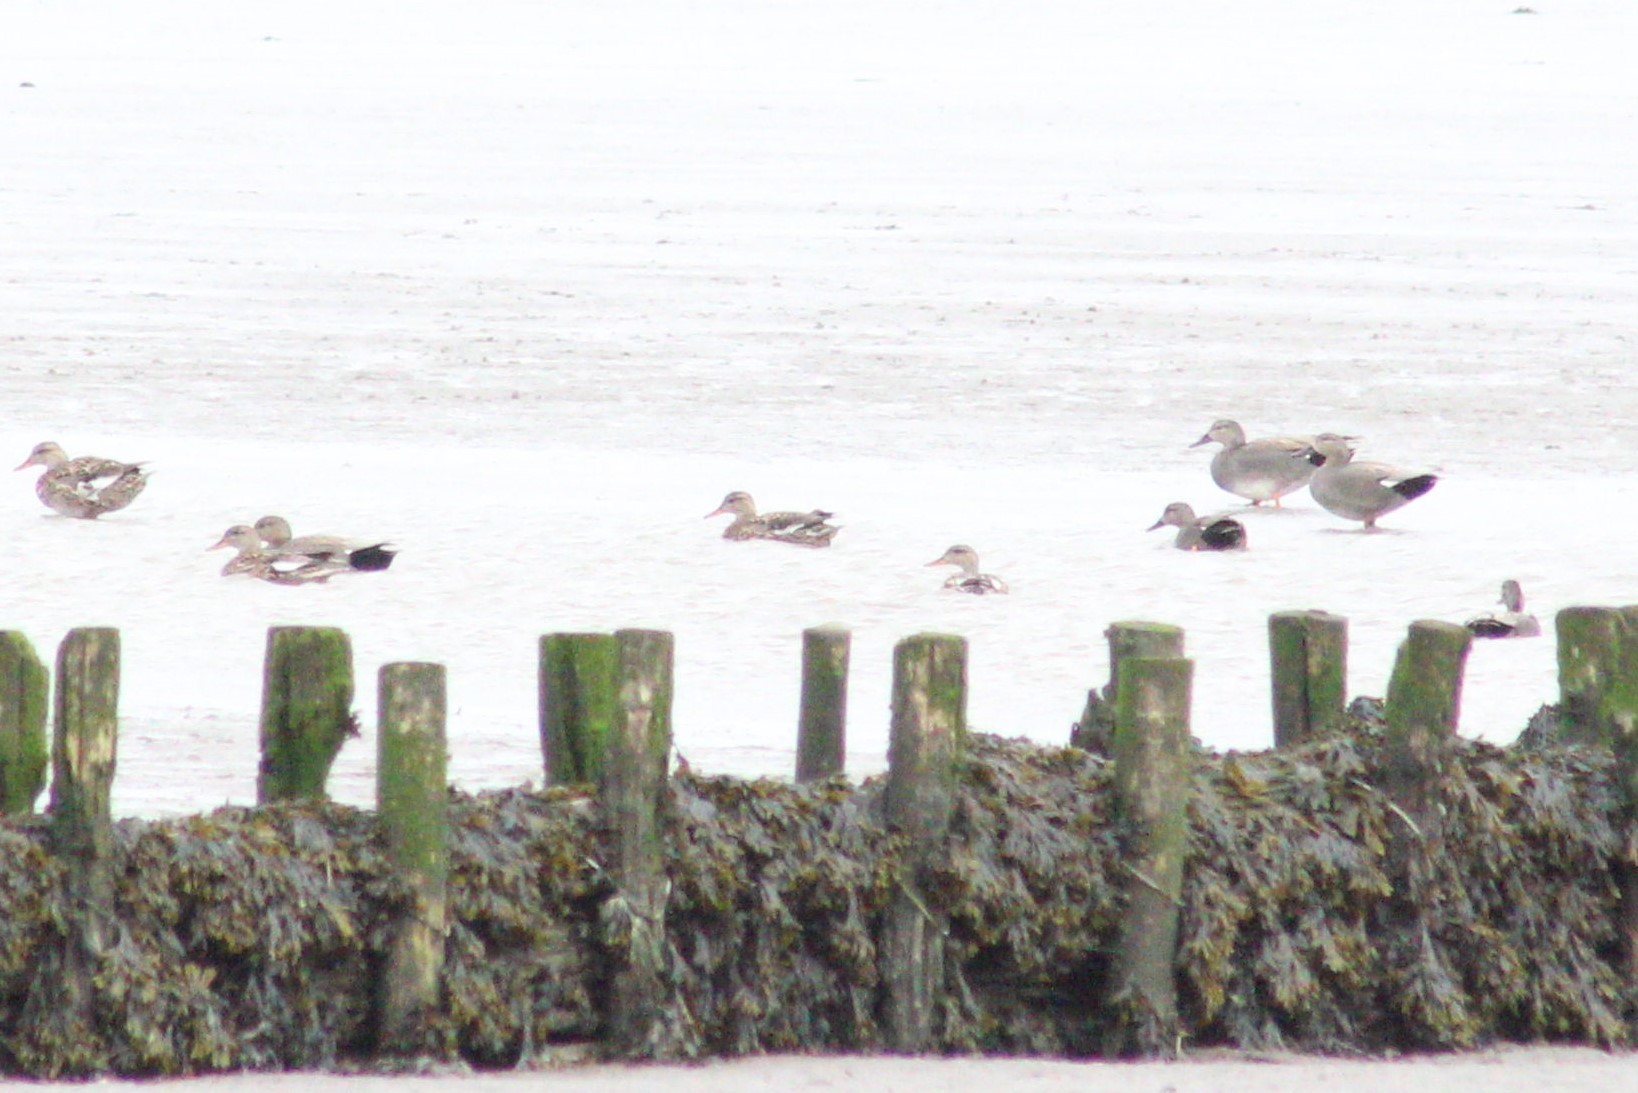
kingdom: Animalia
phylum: Chordata
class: Aves
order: Anseriformes
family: Anatidae
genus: Mareca
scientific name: Mareca strepera
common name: Gadwall
